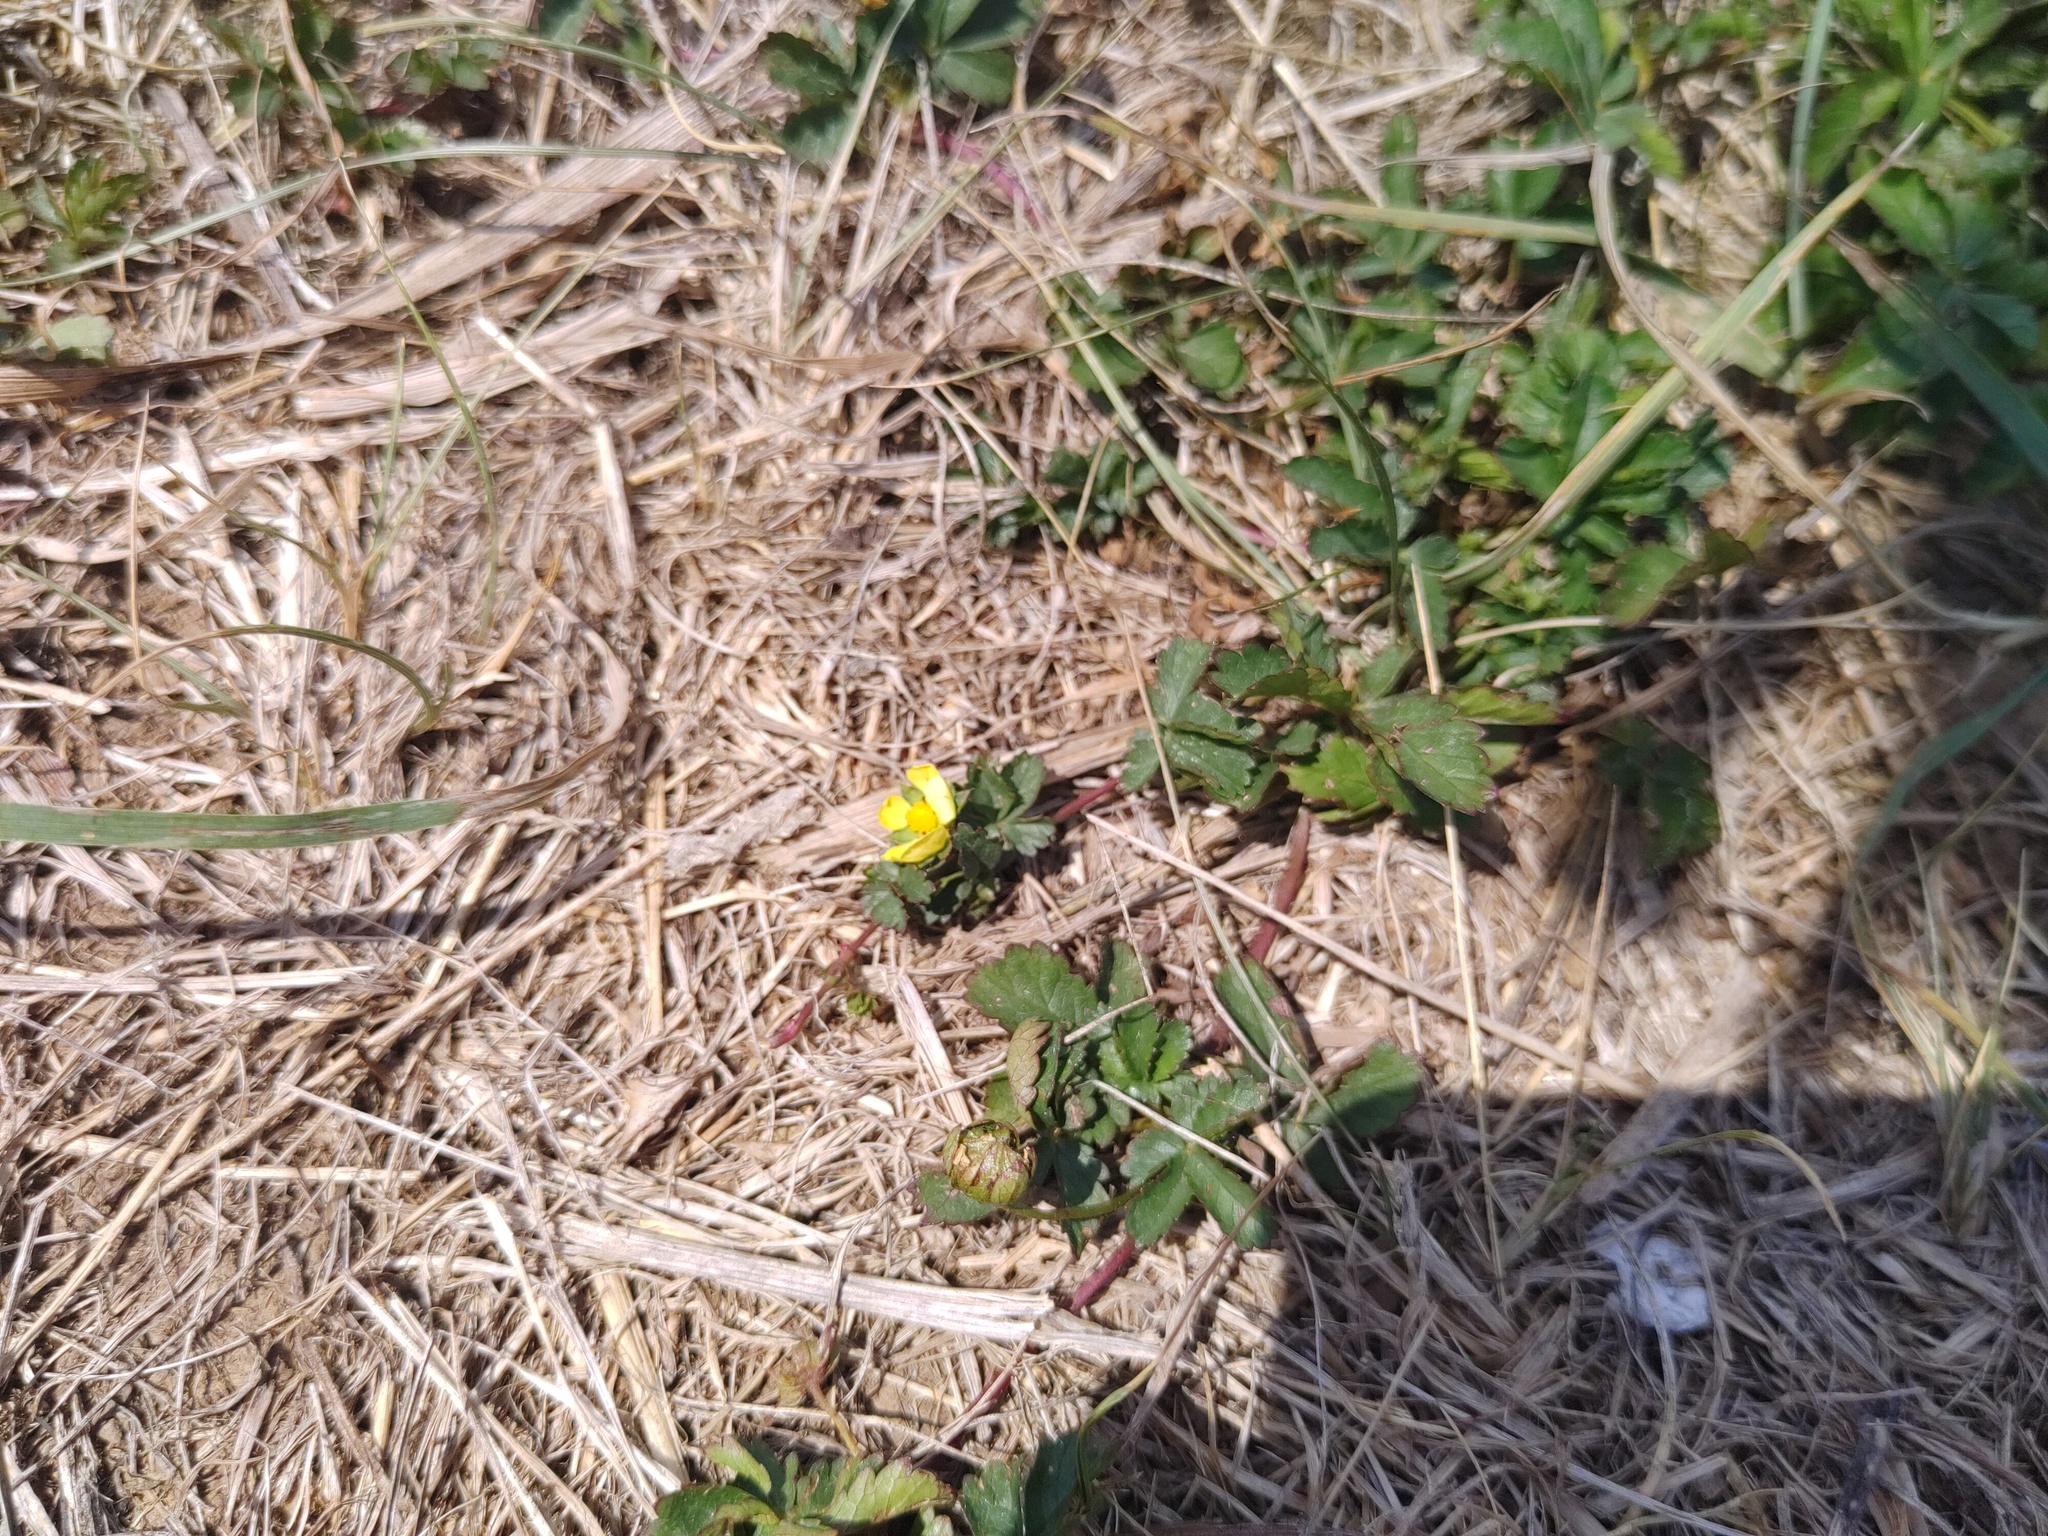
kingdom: Plantae
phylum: Tracheophyta
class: Magnoliopsida
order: Rosales
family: Rosaceae
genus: Potentilla
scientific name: Potentilla reptans
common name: Creeping cinquefoil
